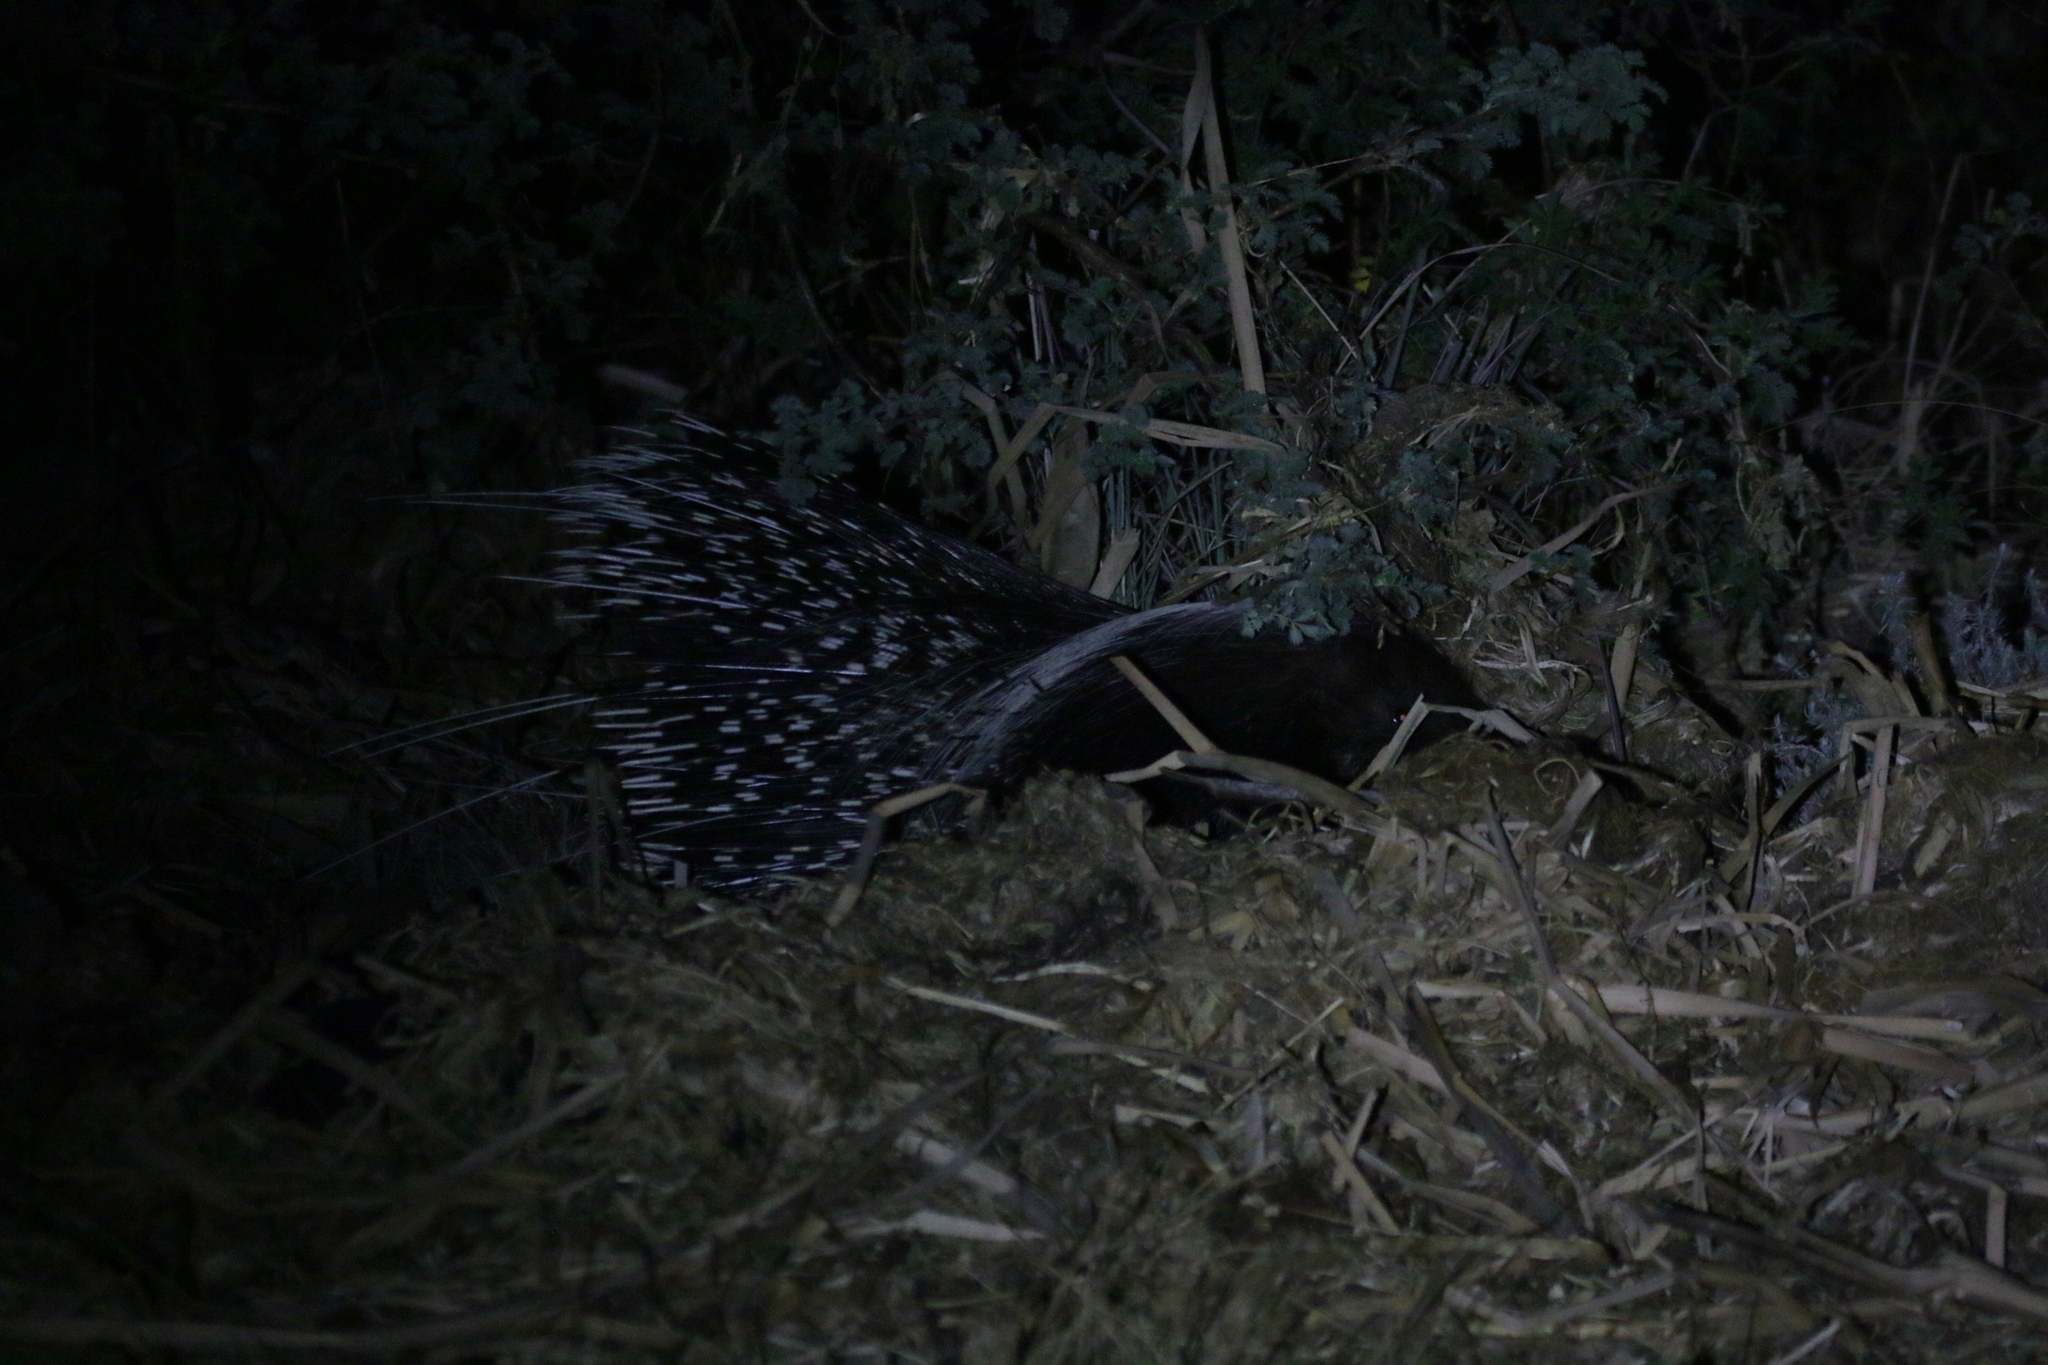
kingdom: Animalia
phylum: Chordata
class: Mammalia
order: Rodentia
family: Hystricidae
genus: Hystrix
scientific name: Hystrix africaeaustralis
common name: Cape porcupine
